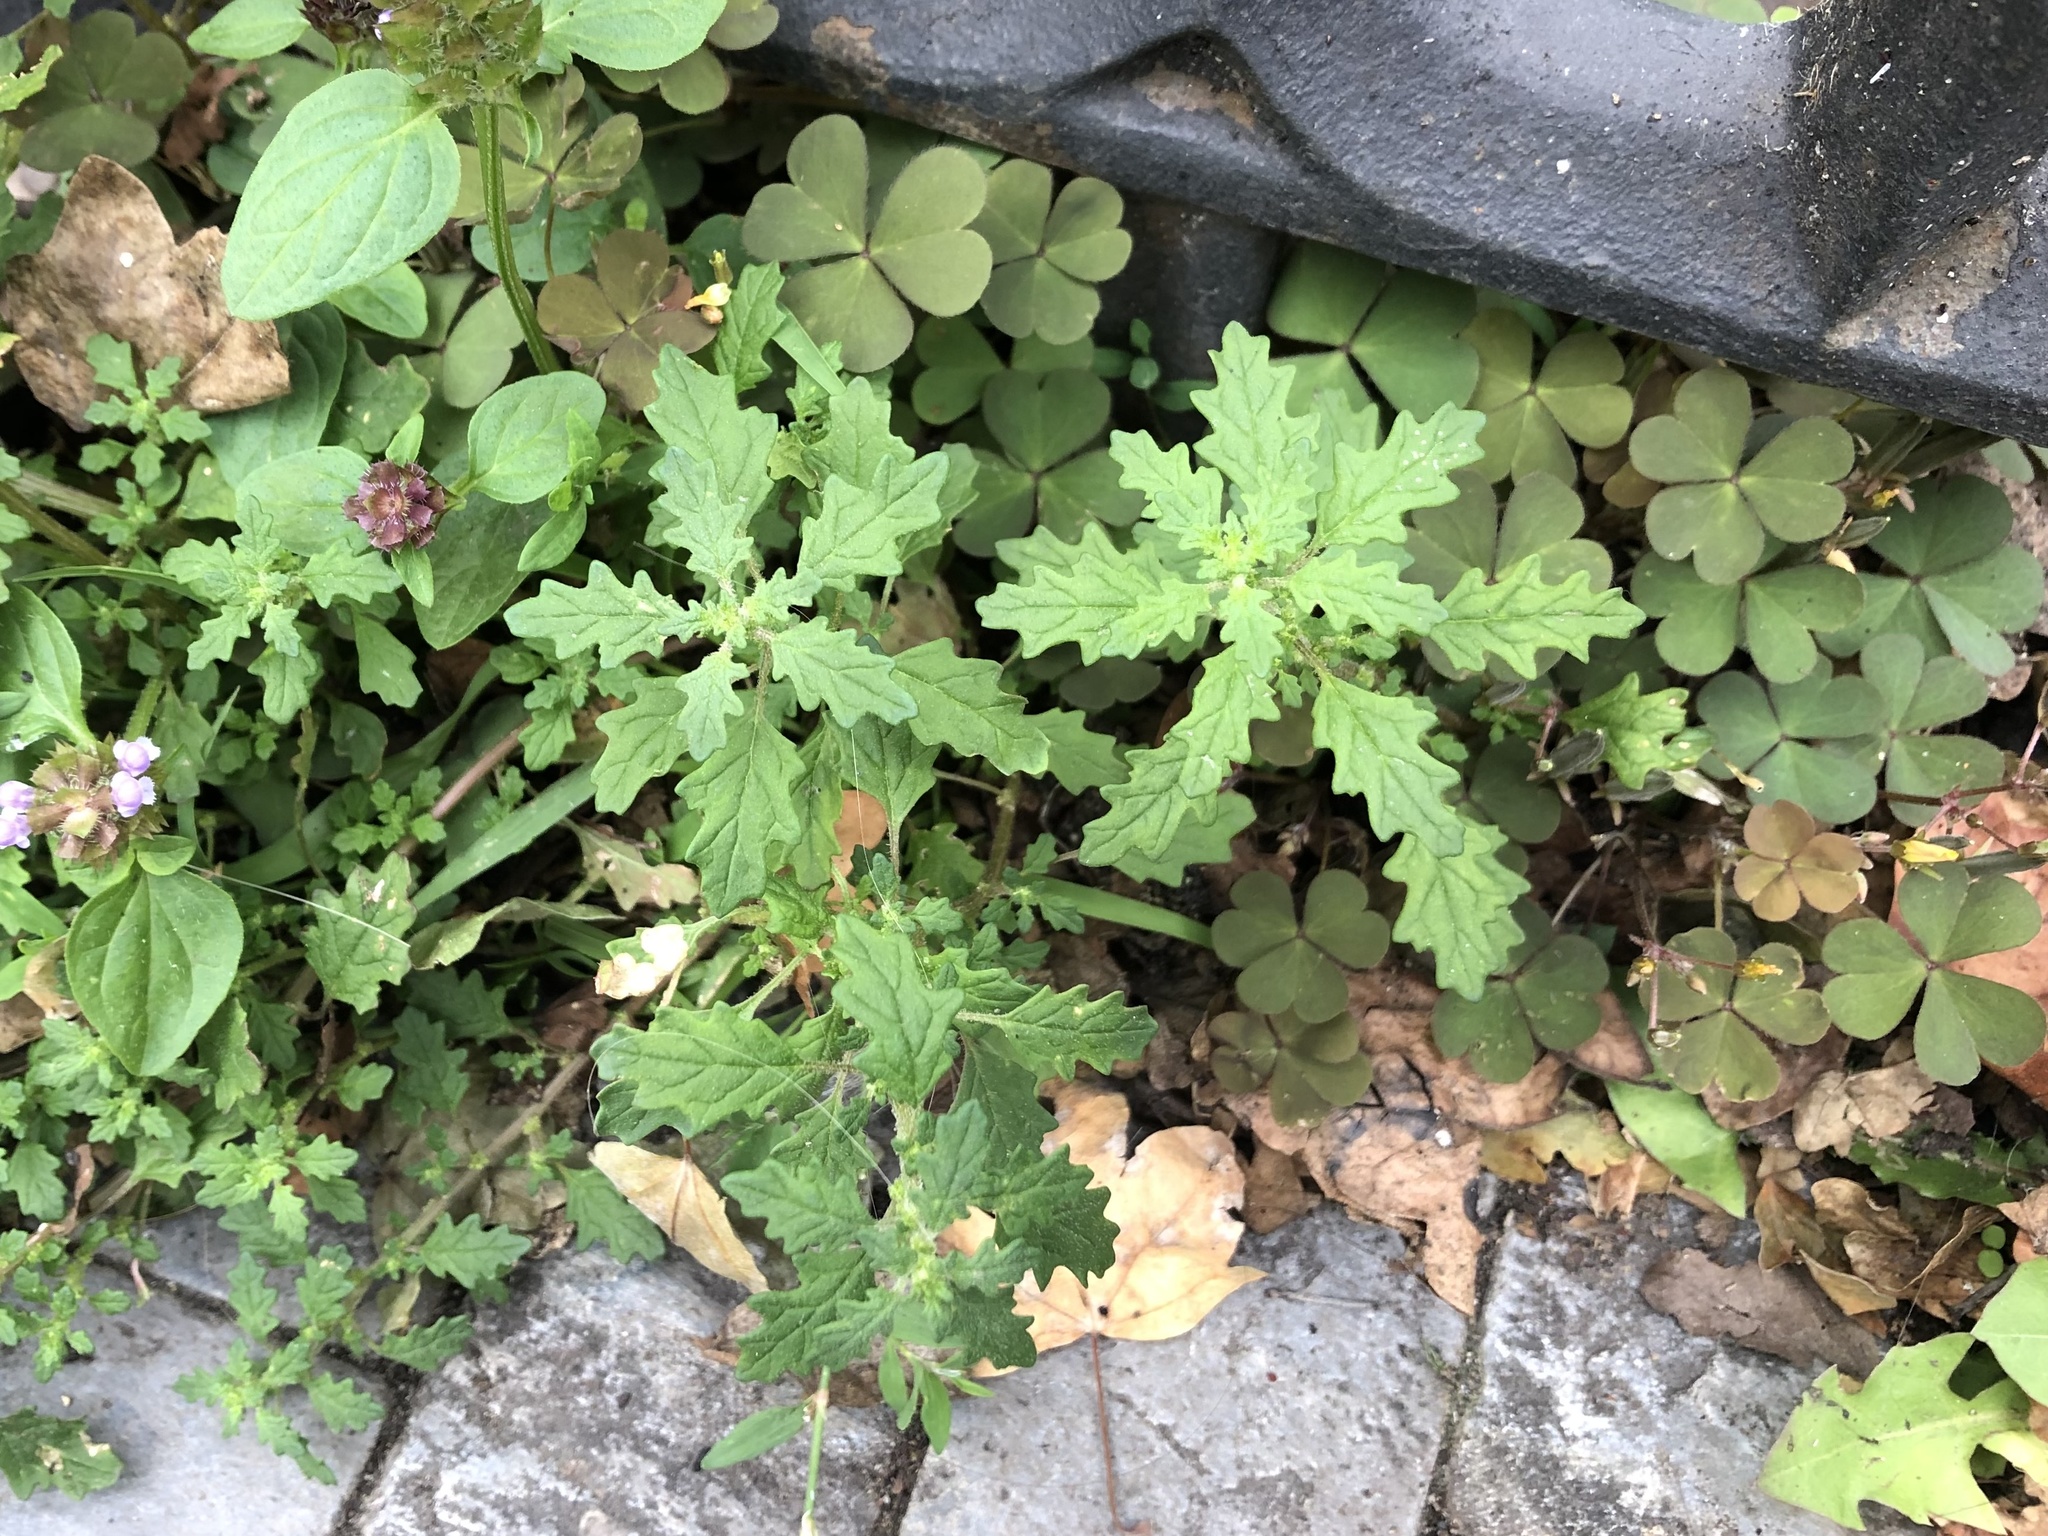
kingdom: Plantae
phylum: Tracheophyta
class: Magnoliopsida
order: Caryophyllales
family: Amaranthaceae
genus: Dysphania
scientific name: Dysphania pumilio
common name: Clammy goosefoot
